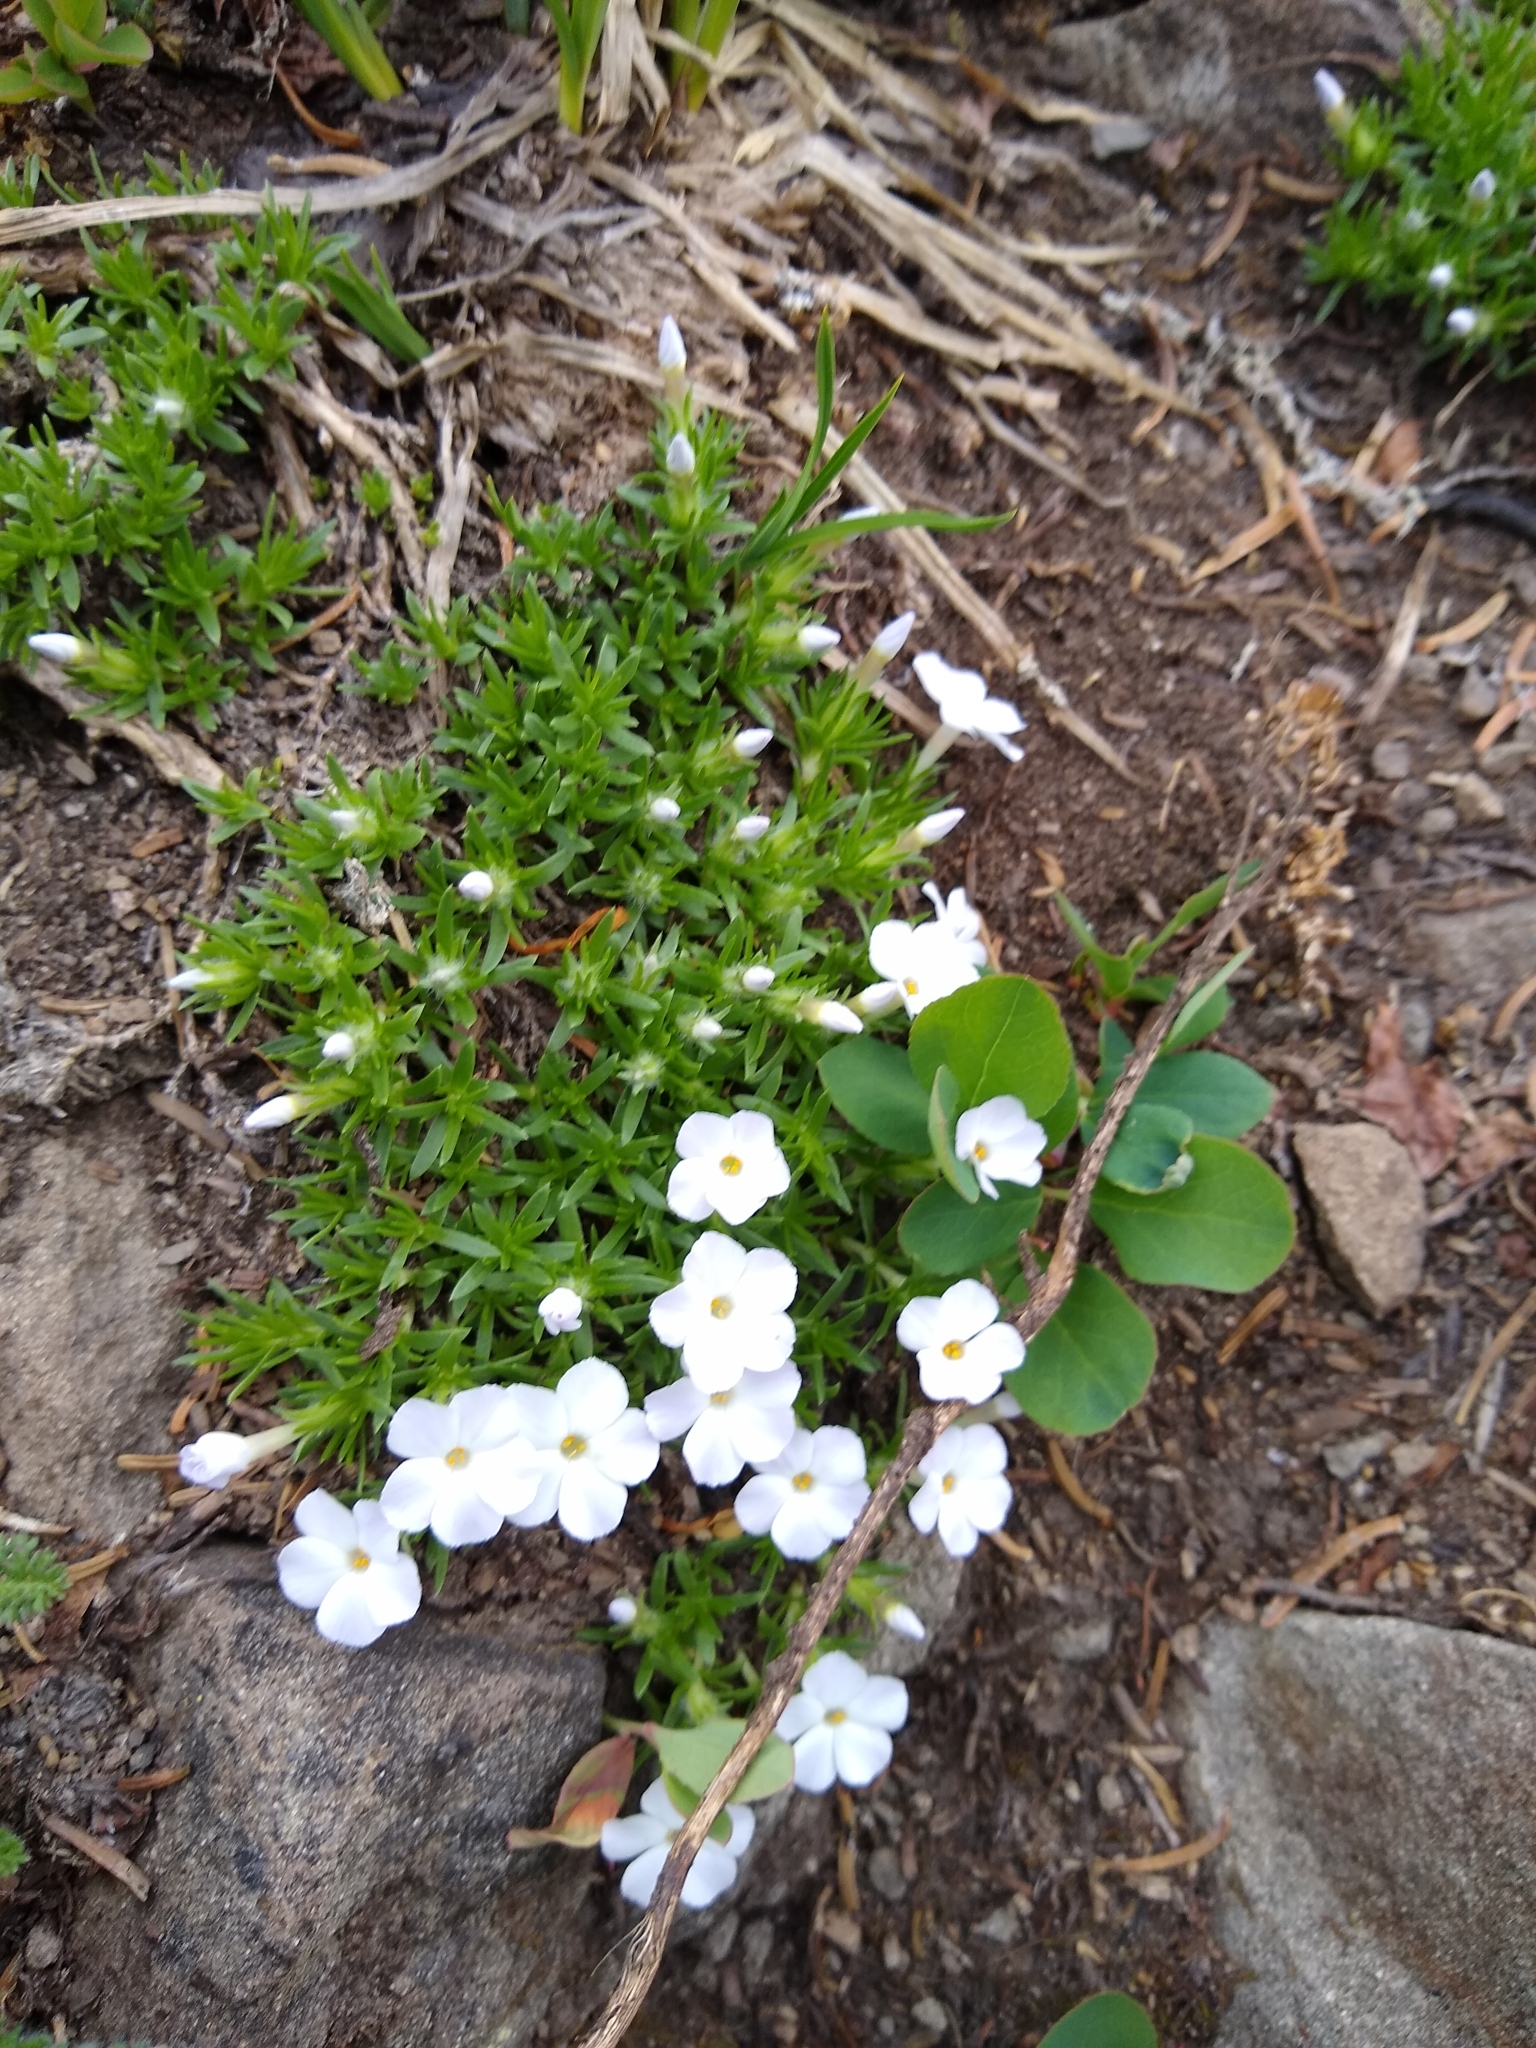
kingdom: Plantae
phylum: Tracheophyta
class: Magnoliopsida
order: Ericales
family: Polemoniaceae
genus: Phlox
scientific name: Phlox diffusa
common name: Mat phlox
